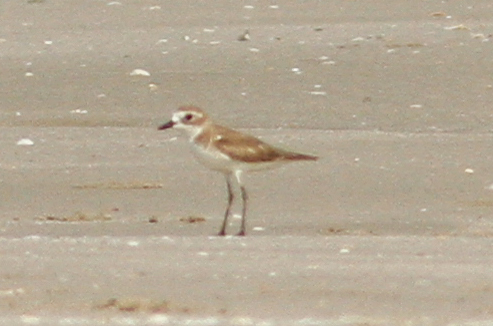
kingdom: Animalia
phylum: Chordata
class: Aves
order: Charadriiformes
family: Charadriidae
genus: Anarhynchus
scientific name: Anarhynchus
